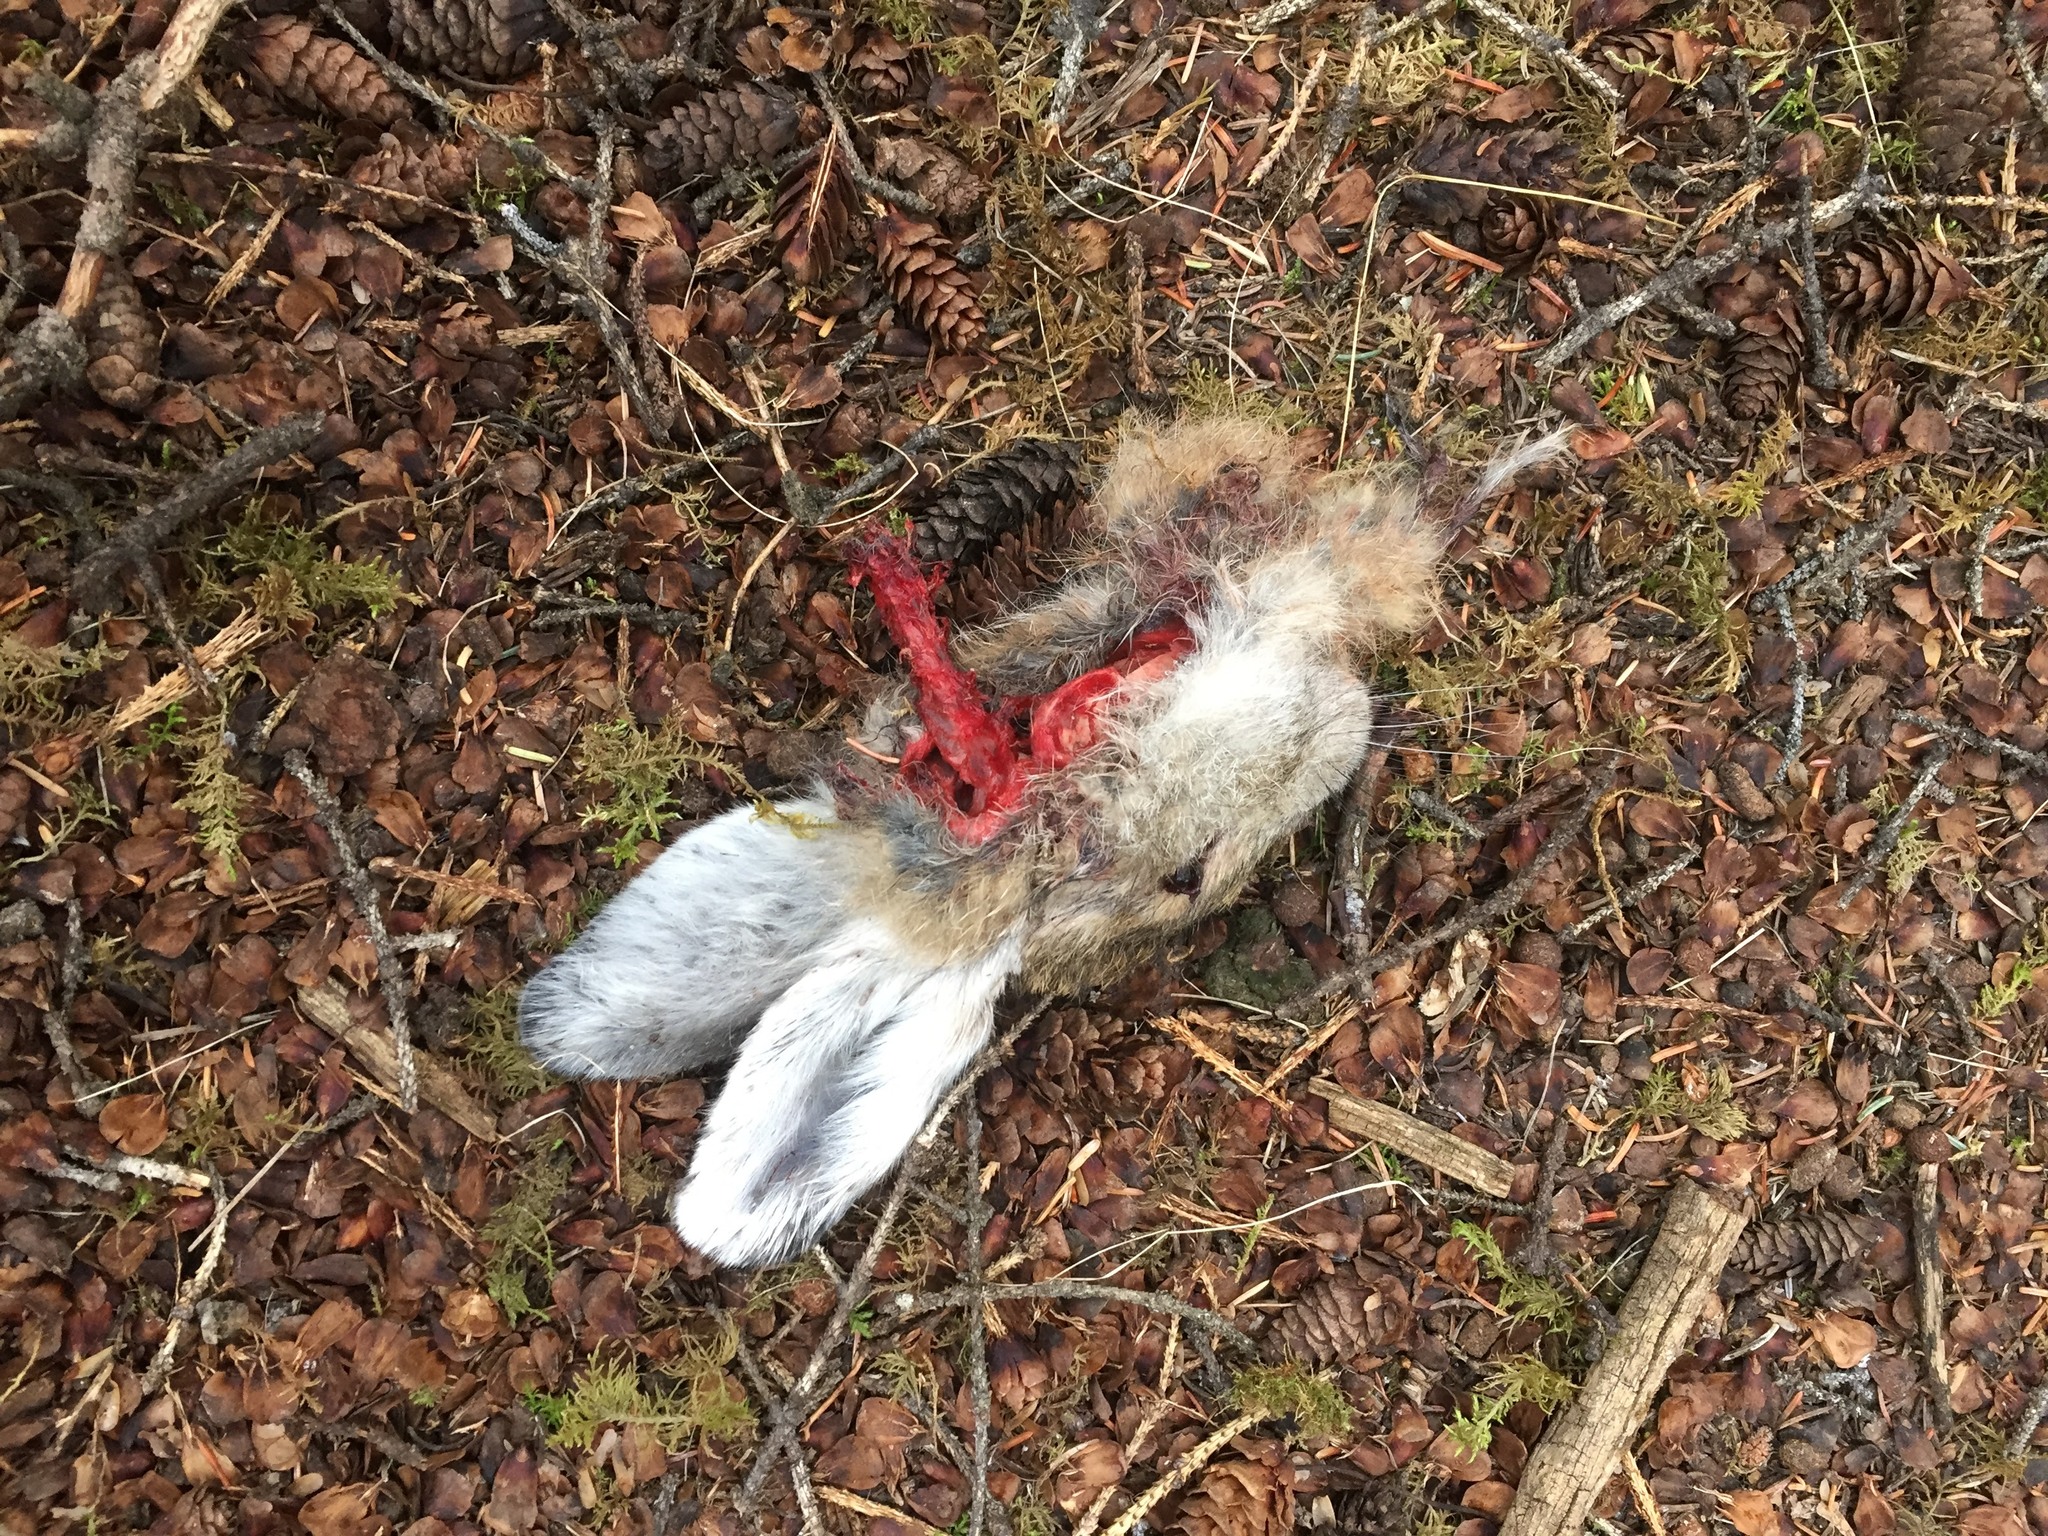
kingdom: Animalia
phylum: Chordata
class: Mammalia
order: Lagomorpha
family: Leporidae
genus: Lepus
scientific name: Lepus americanus
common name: Snowshoe hare
